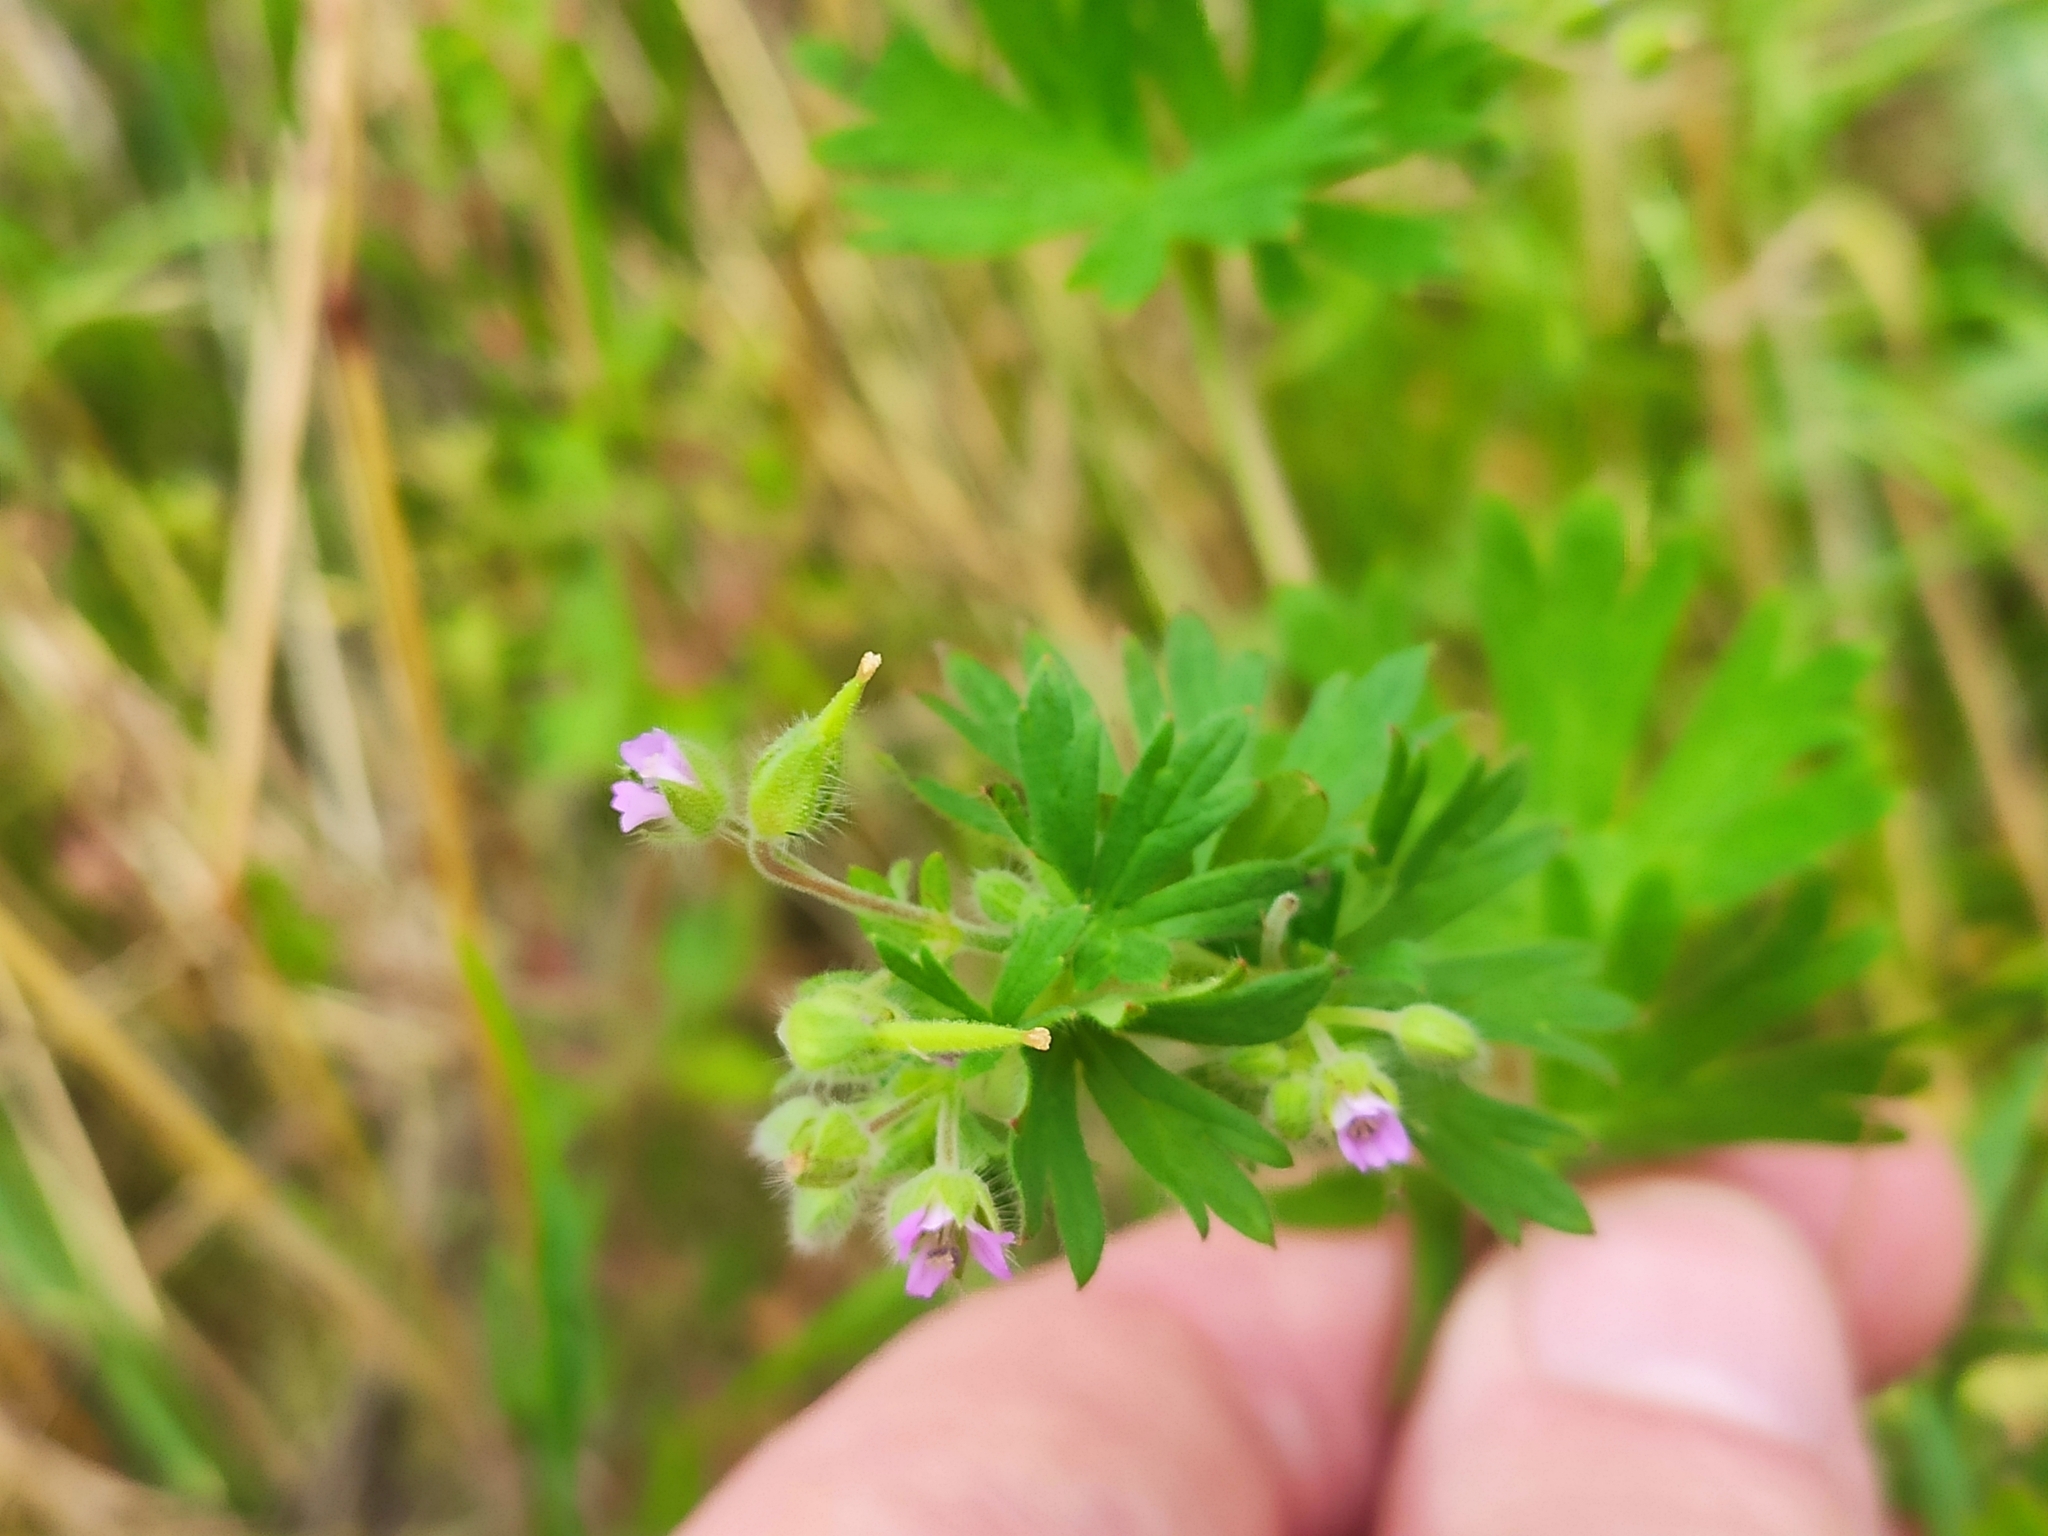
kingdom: Plantae
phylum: Tracheophyta
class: Magnoliopsida
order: Geraniales
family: Geraniaceae
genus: Geranium
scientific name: Geranium pusillum
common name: Small geranium
